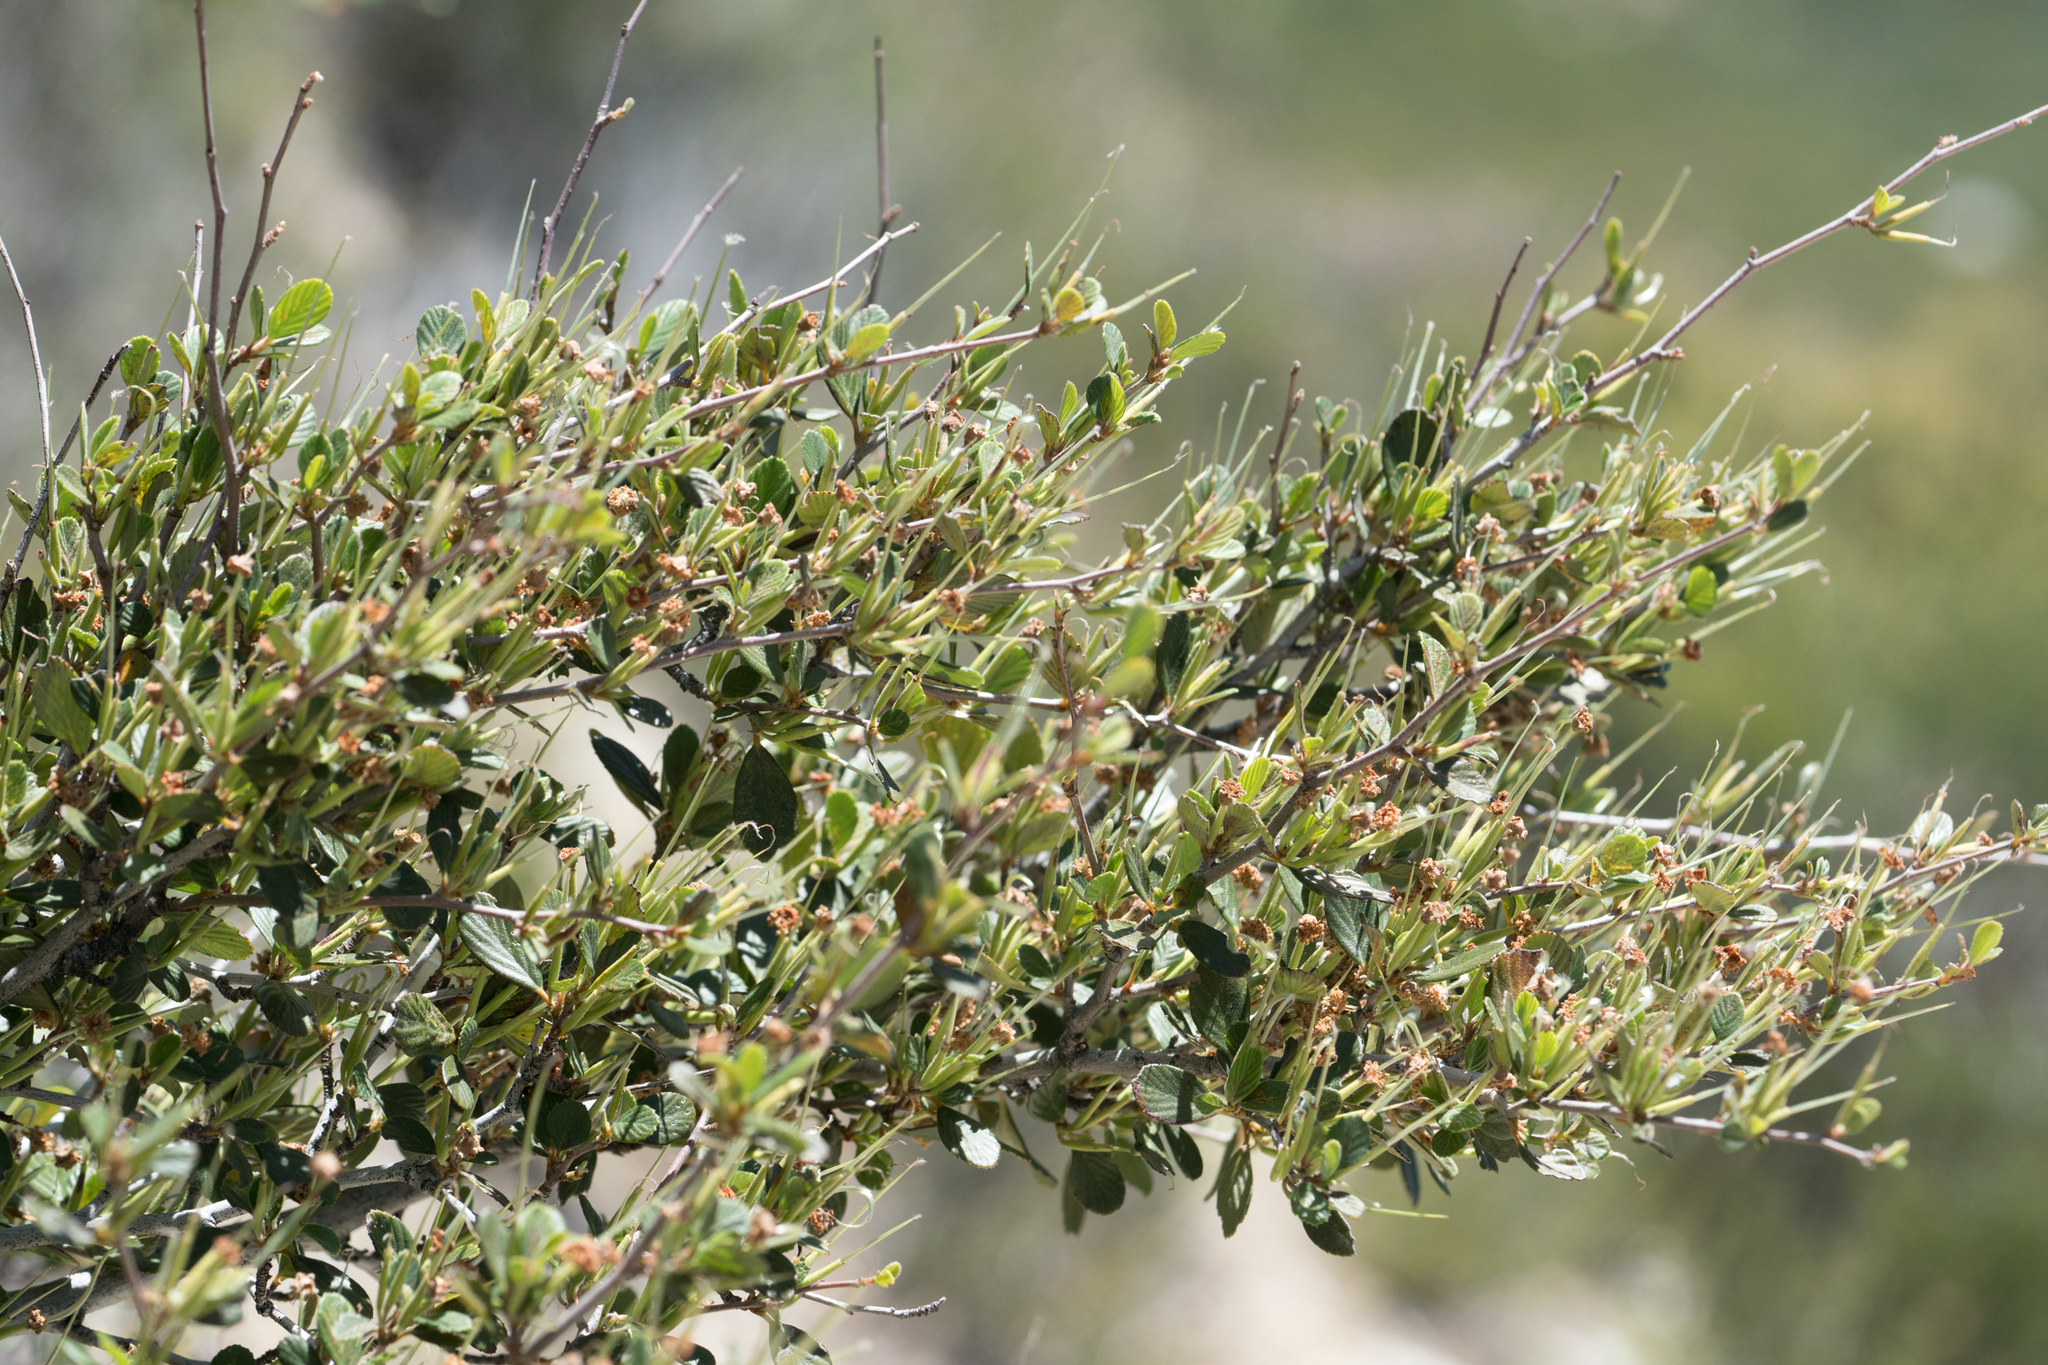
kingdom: Plantae
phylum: Tracheophyta
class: Magnoliopsida
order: Rosales
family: Rosaceae
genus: Cercocarpus
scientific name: Cercocarpus betuloides
